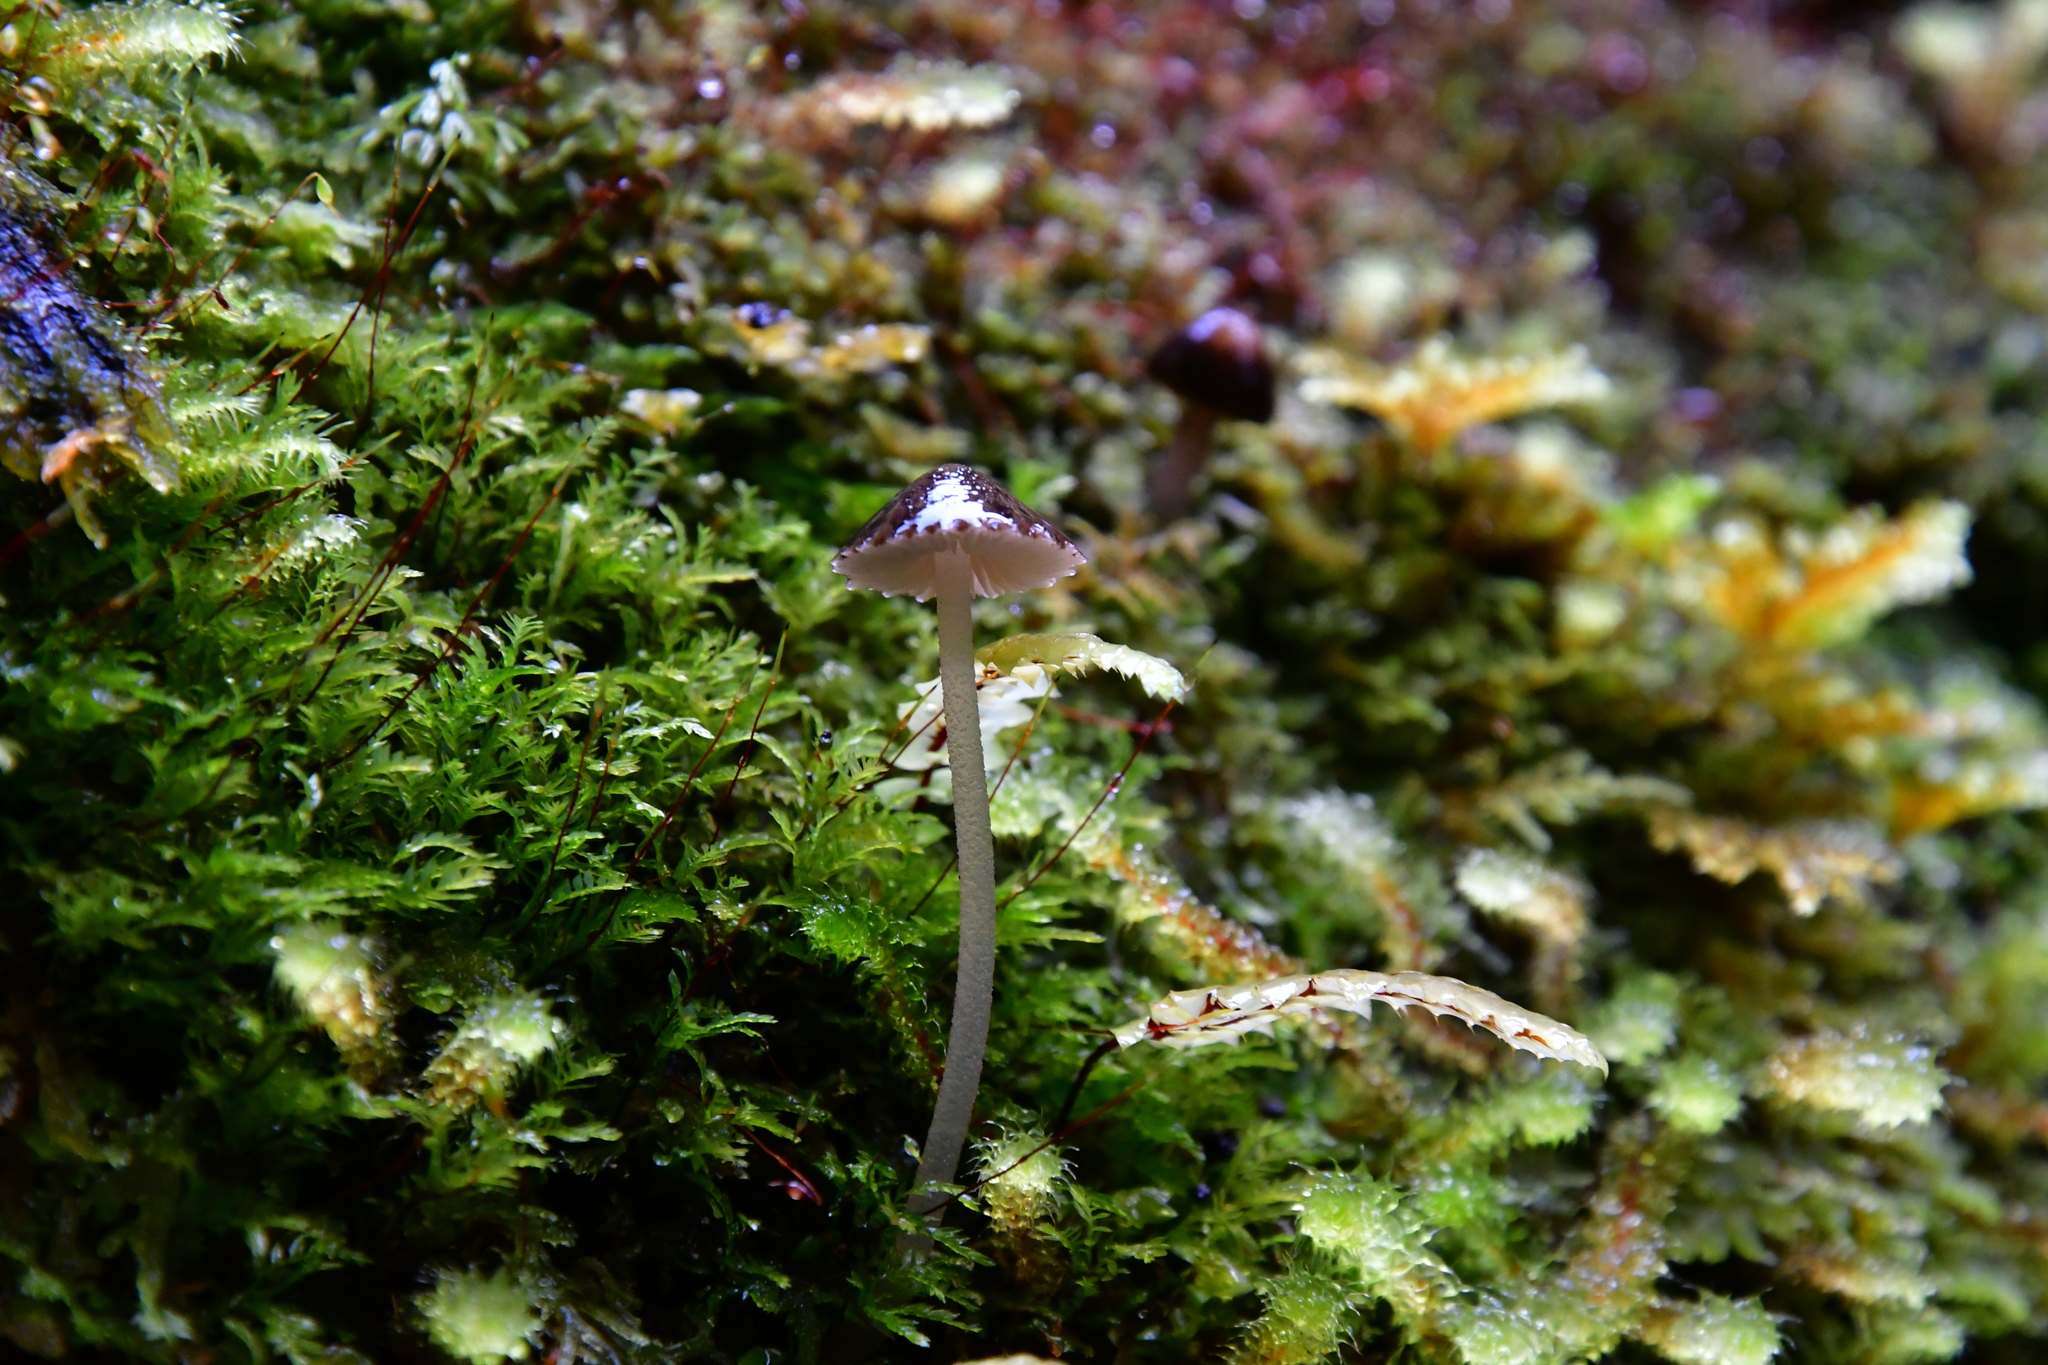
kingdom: Fungi
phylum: Basidiomycota
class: Agaricomycetes
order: Agaricales
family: Porotheleaceae
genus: Pseudohydropus
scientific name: Pseudohydropus parafunebris
